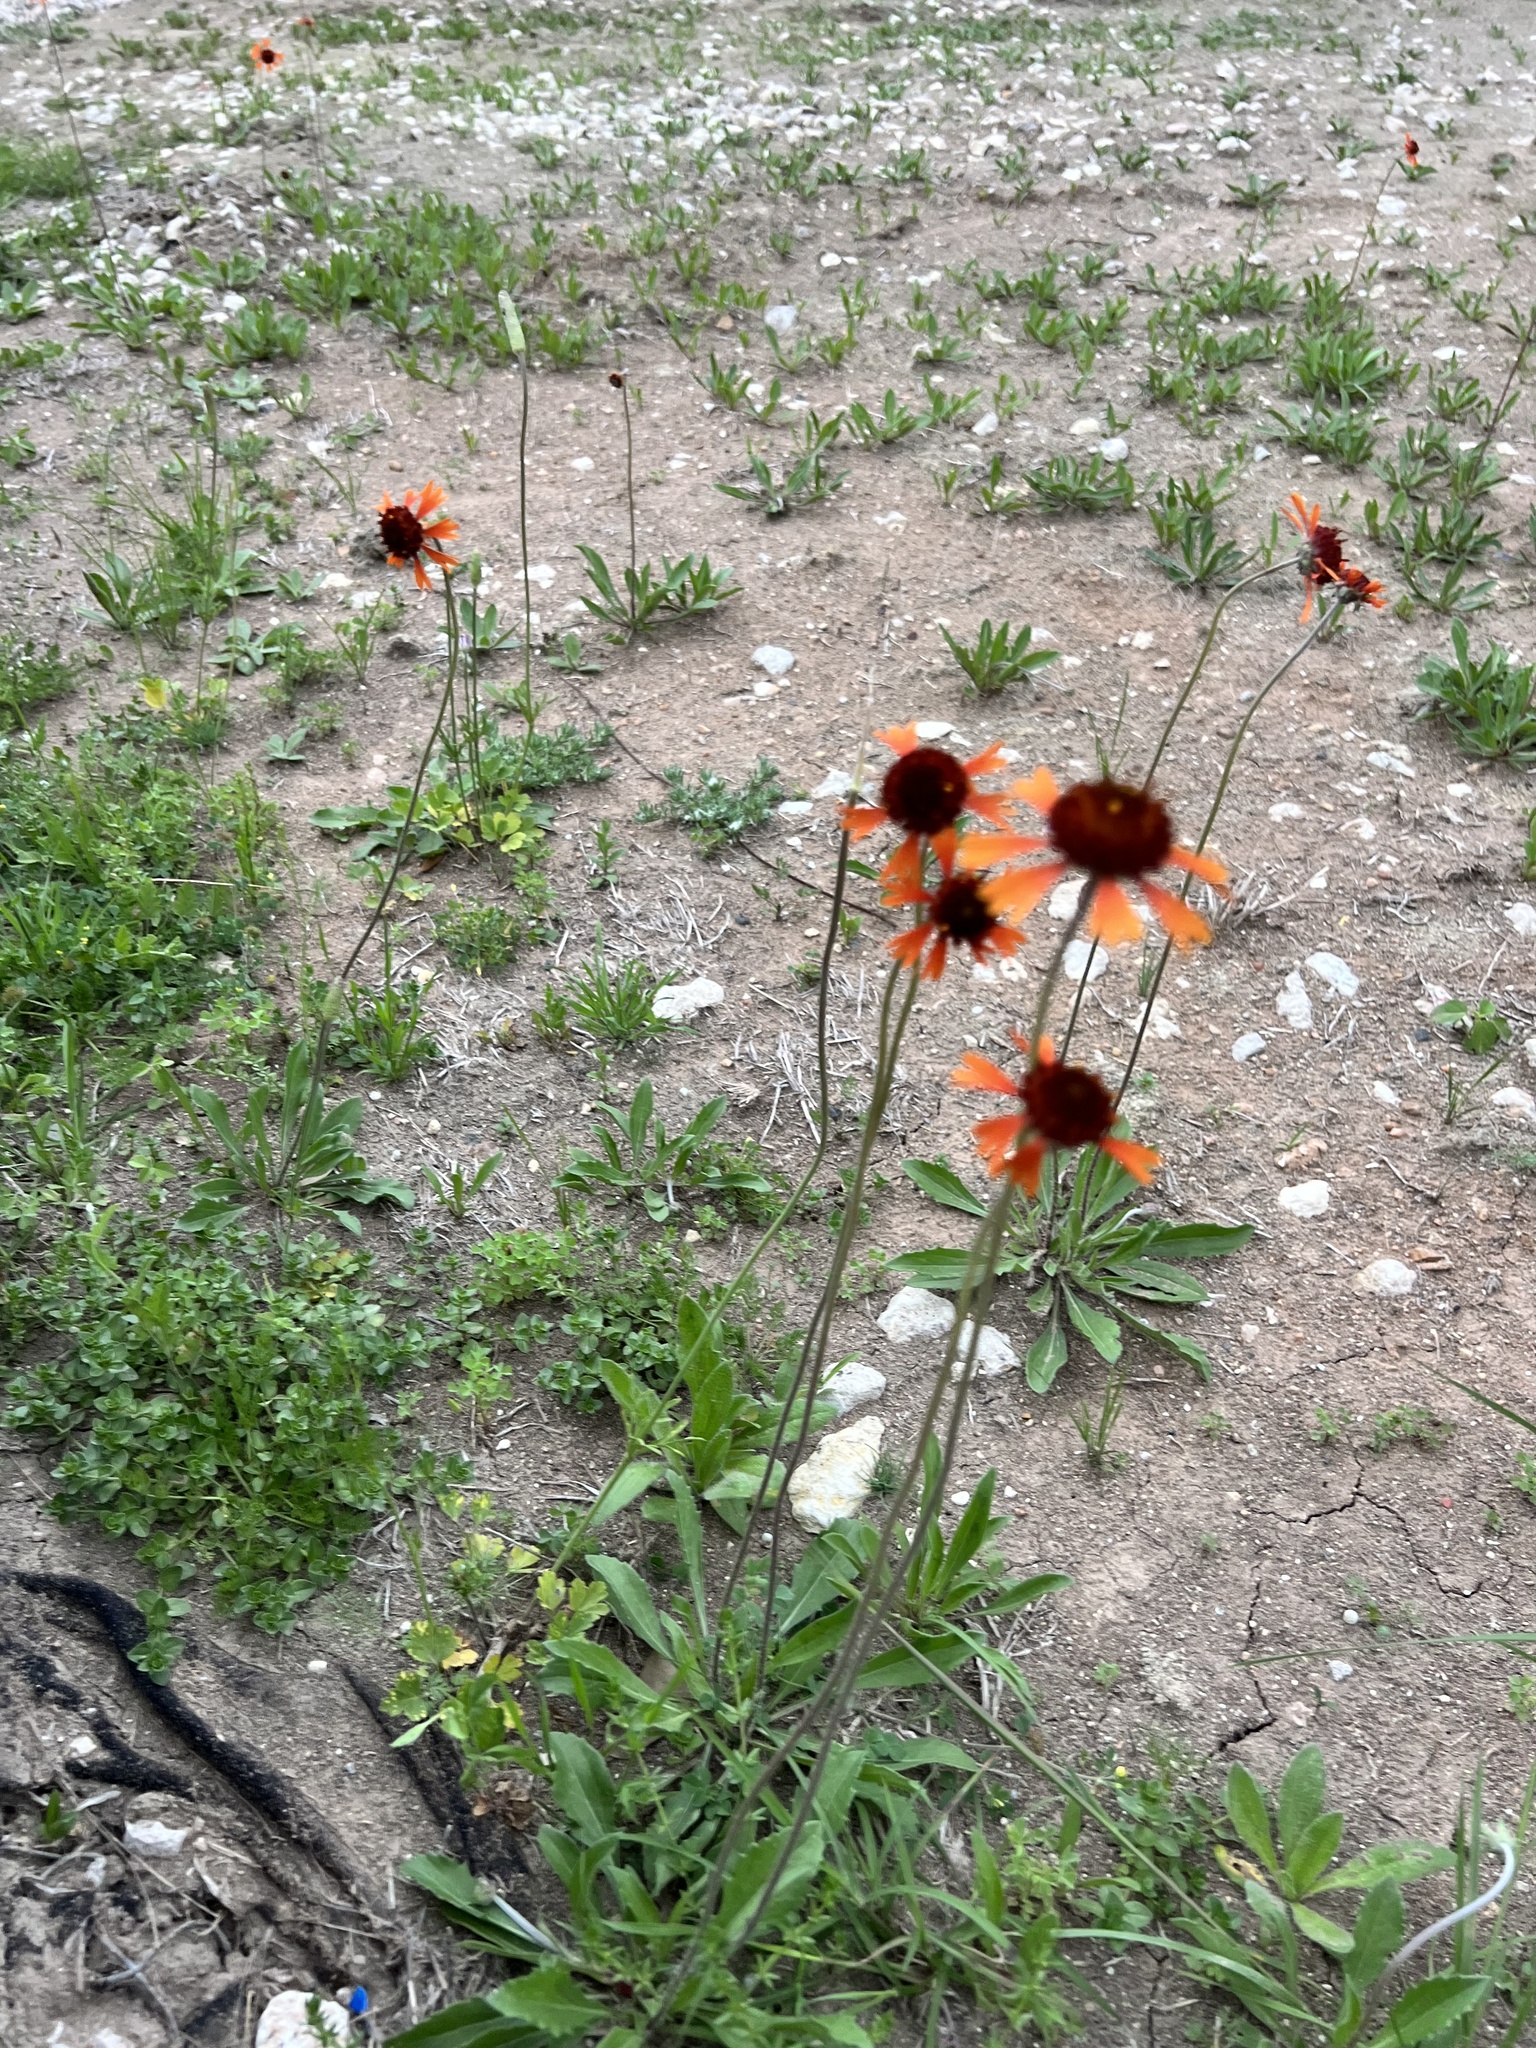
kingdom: Plantae
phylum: Tracheophyta
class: Magnoliopsida
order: Asterales
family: Asteraceae
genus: Gaillardia
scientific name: Gaillardia suavis
